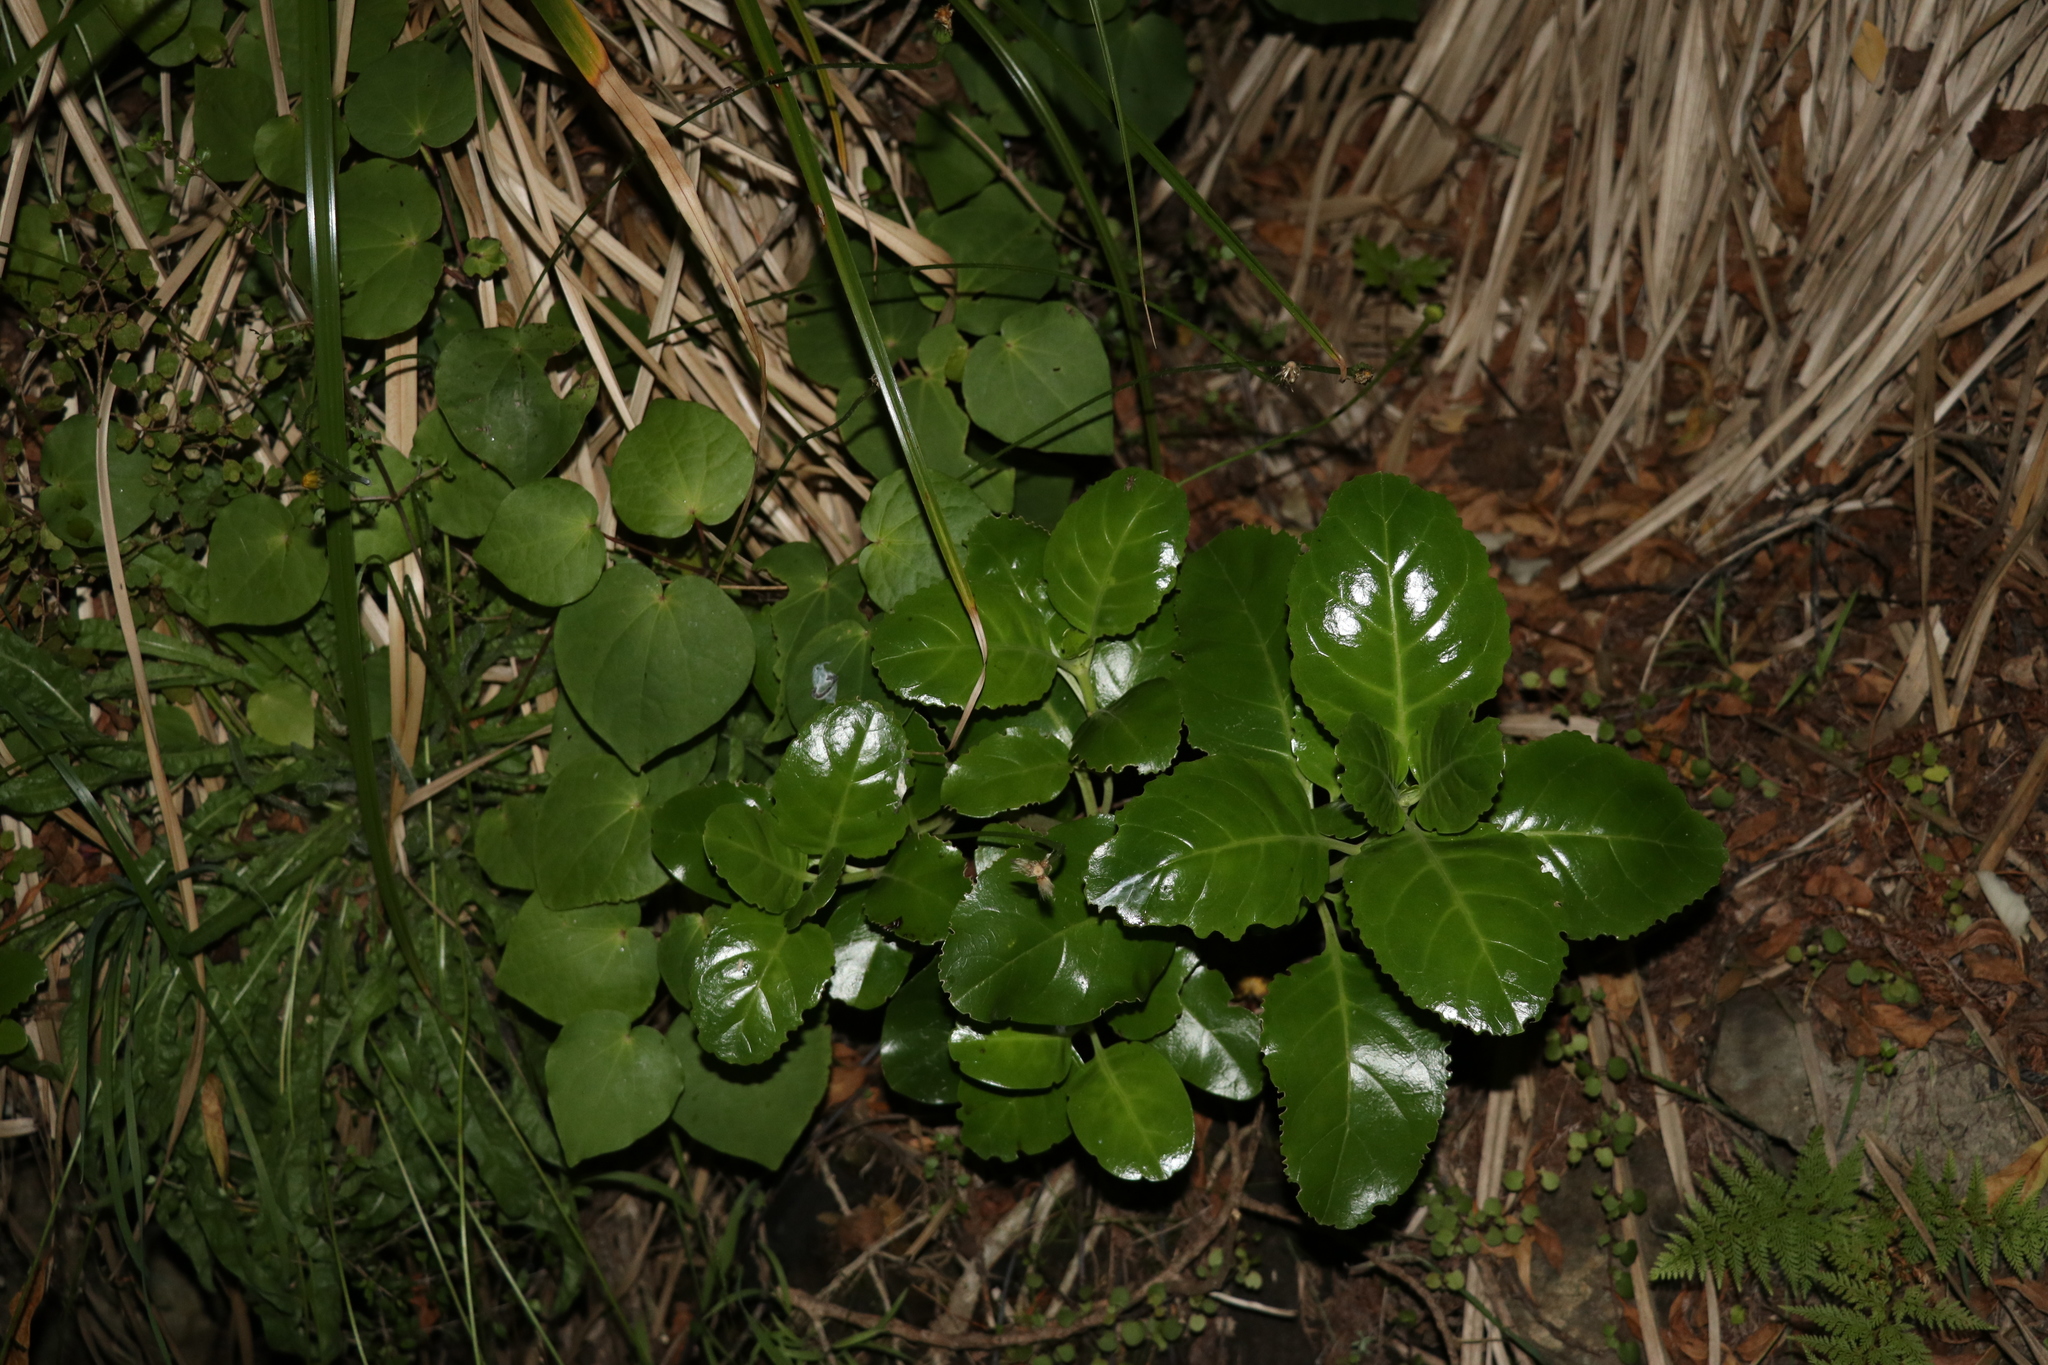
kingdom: Plantae
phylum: Tracheophyta
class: Magnoliopsida
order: Gentianales
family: Rubiaceae
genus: Coprosma
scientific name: Coprosma repens
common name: Tree bedstraw
